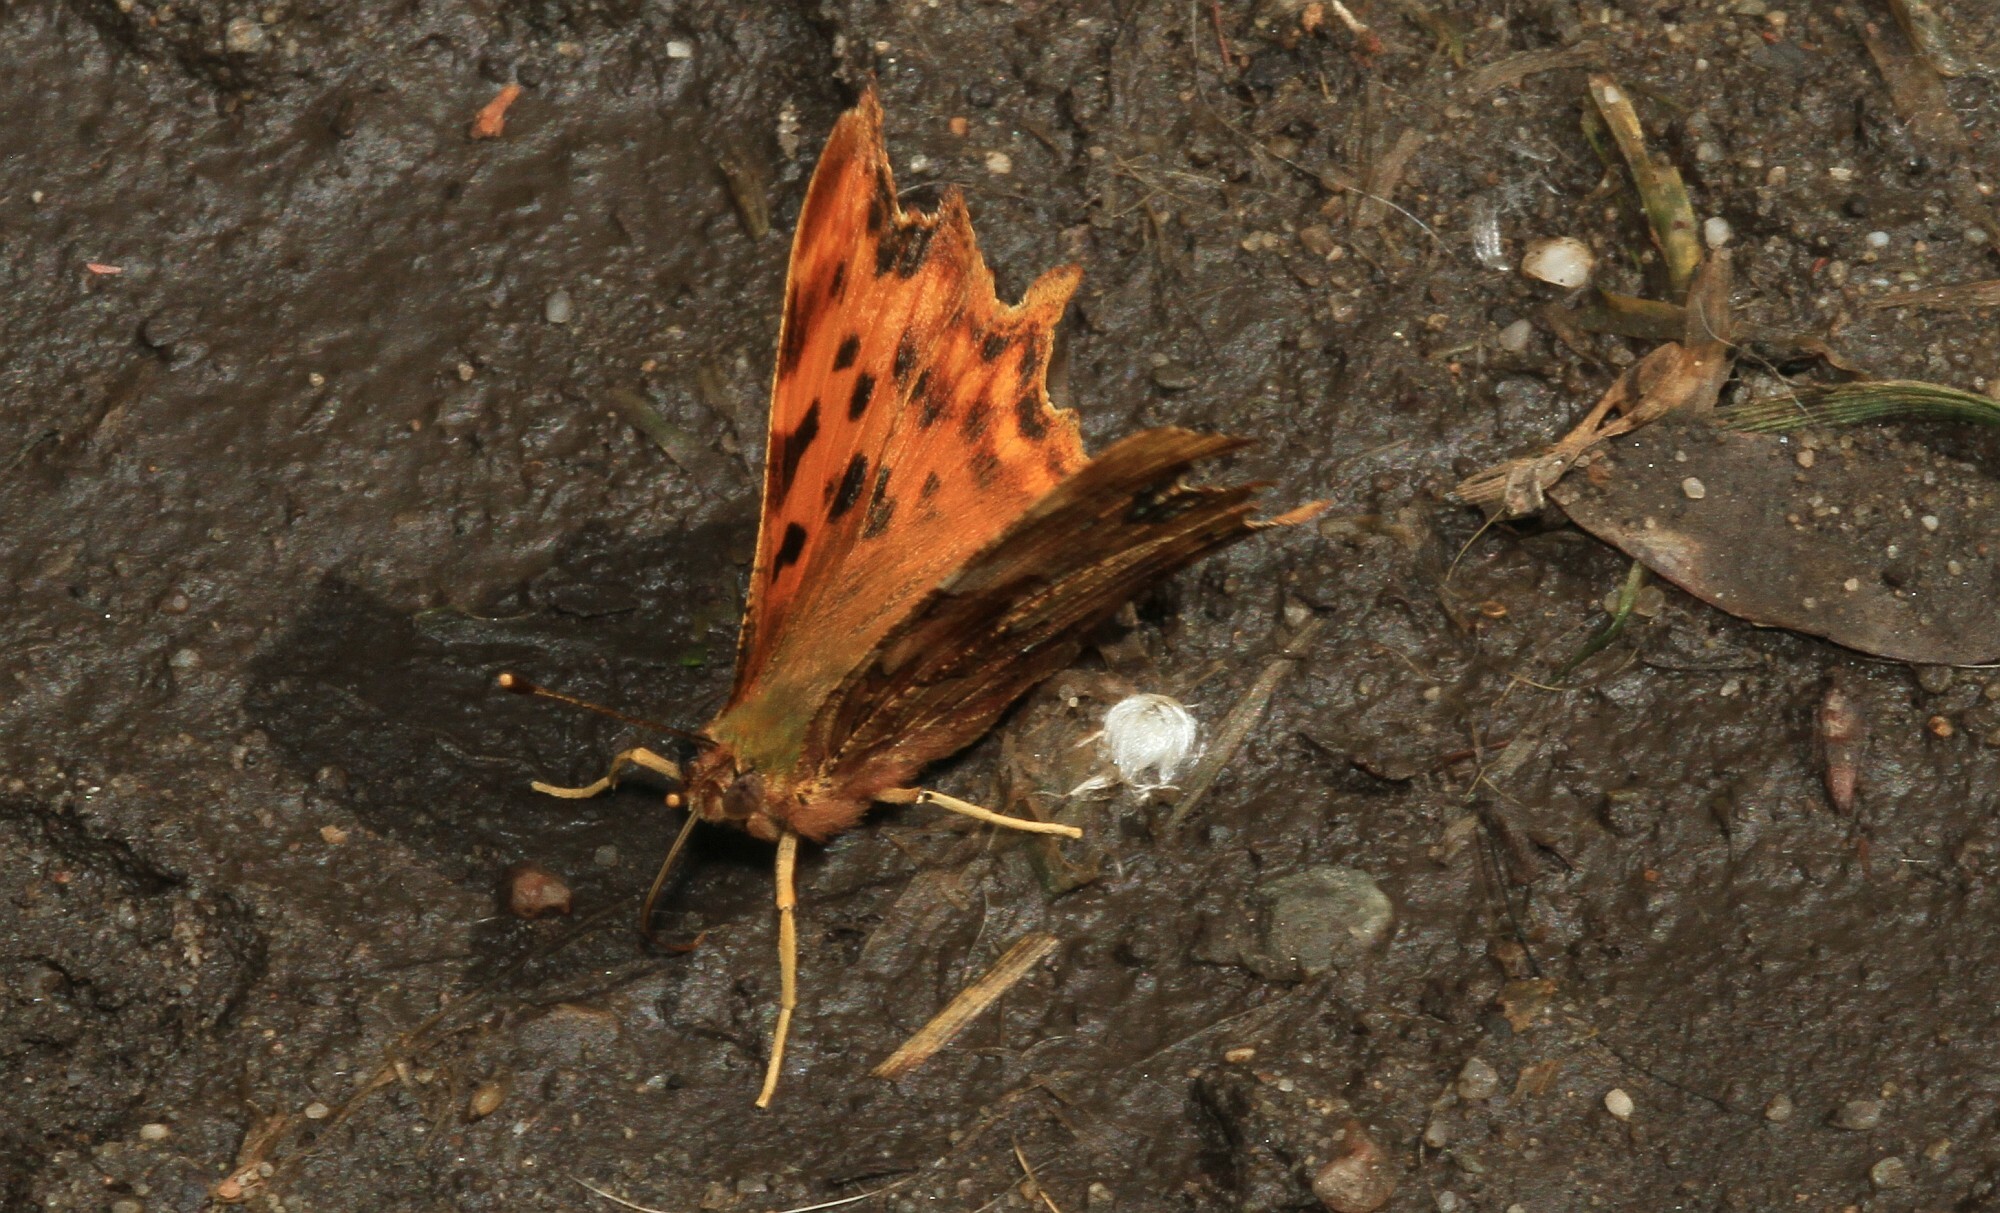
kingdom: Animalia
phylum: Arthropoda
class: Insecta
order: Lepidoptera
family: Nymphalidae
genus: Polygonia
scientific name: Polygonia c-album
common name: Comma
